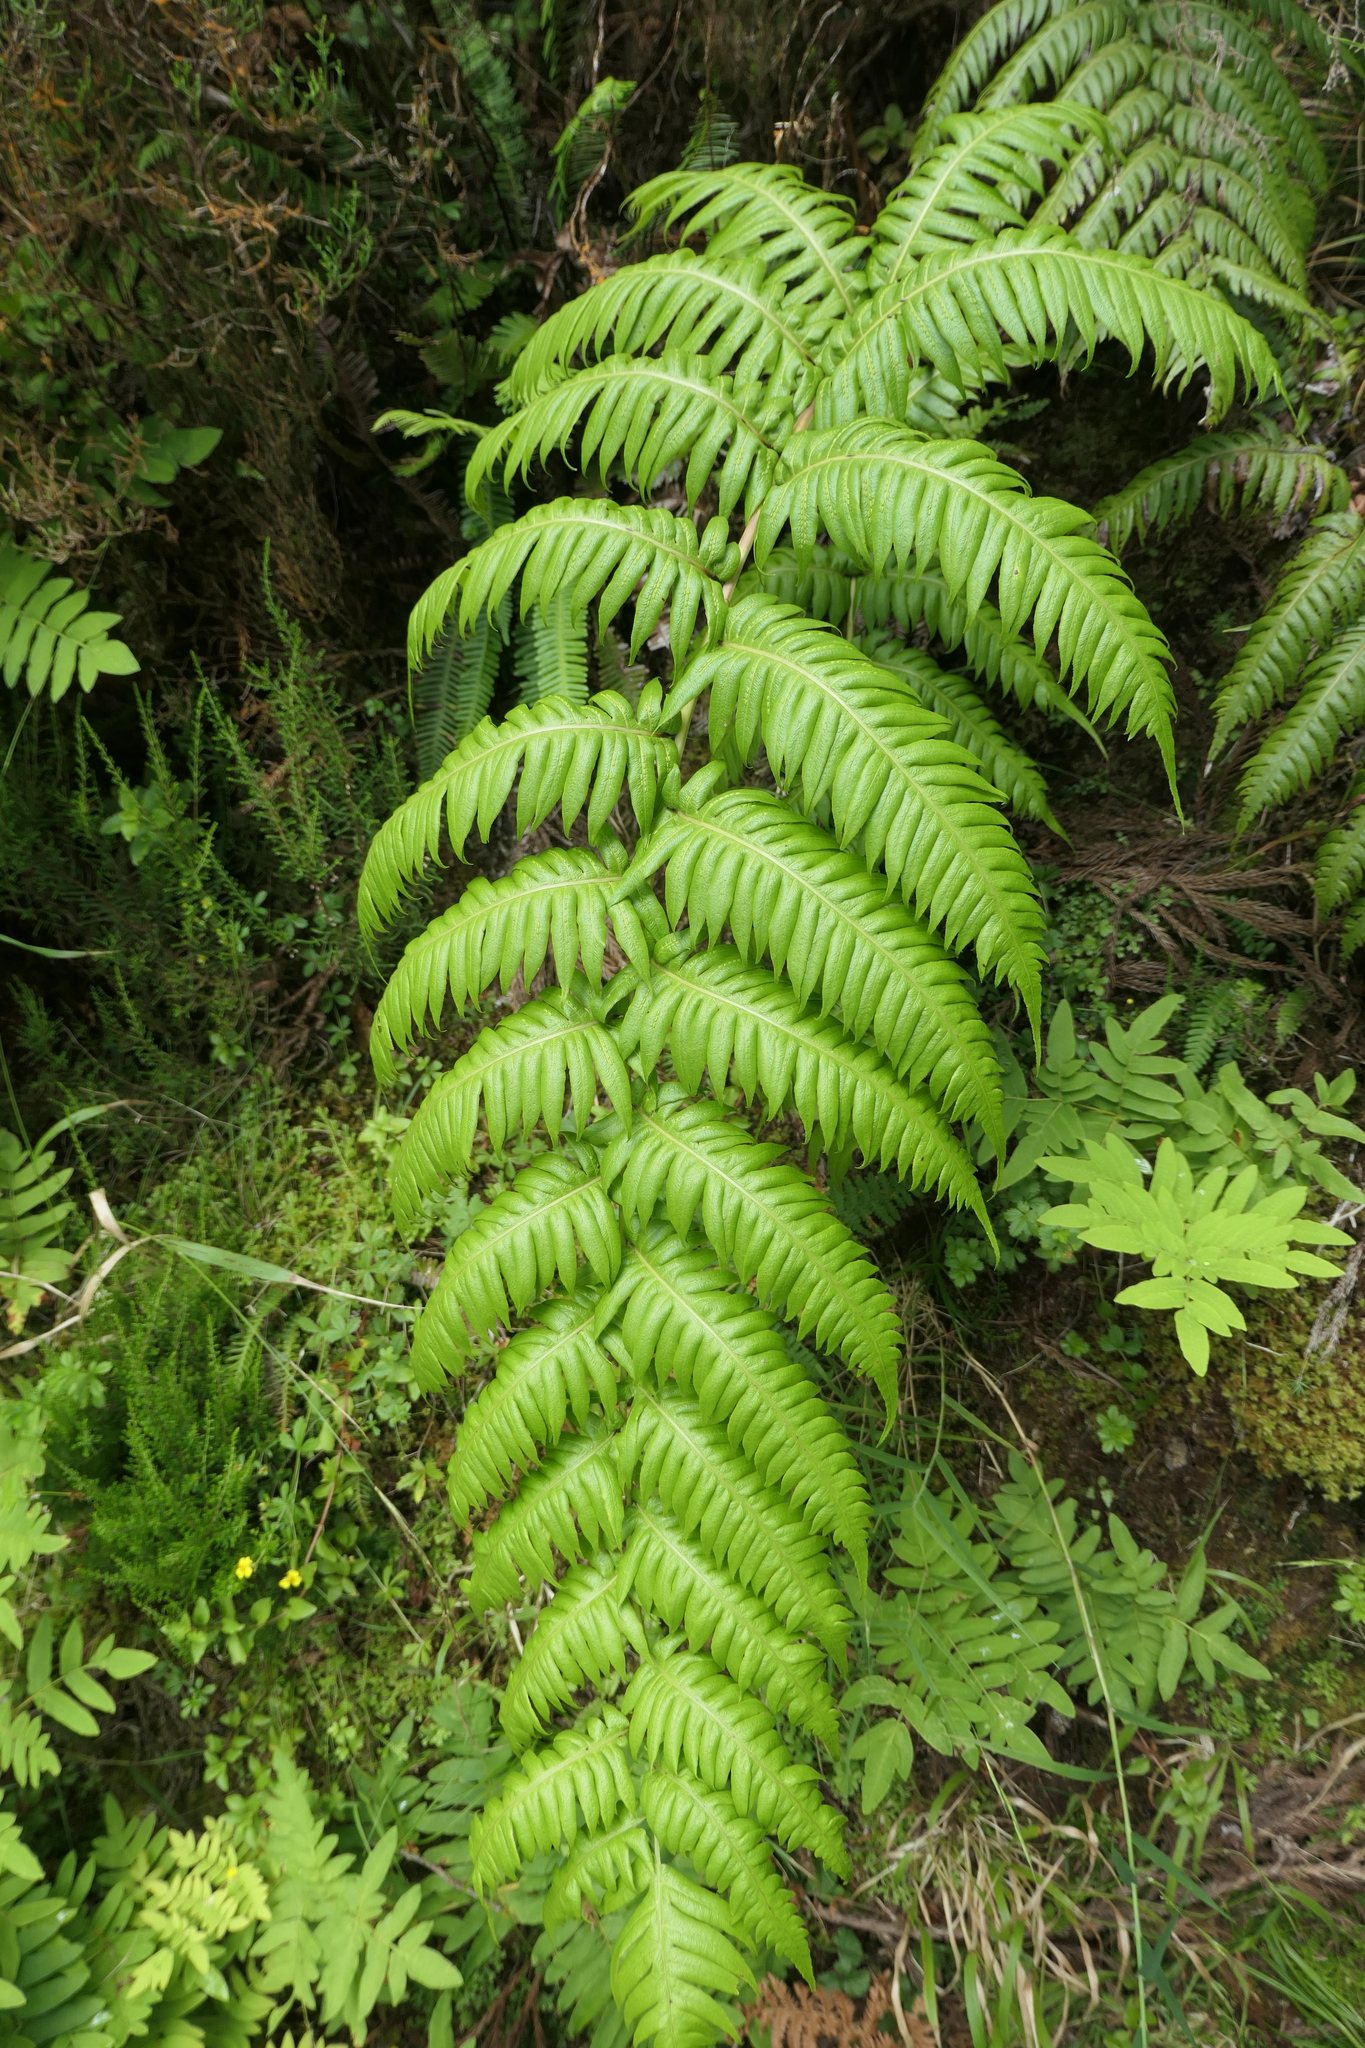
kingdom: Plantae
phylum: Tracheophyta
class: Polypodiopsida
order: Polypodiales
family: Blechnaceae
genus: Woodwardia
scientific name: Woodwardia radicans
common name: Rooting chainfern
